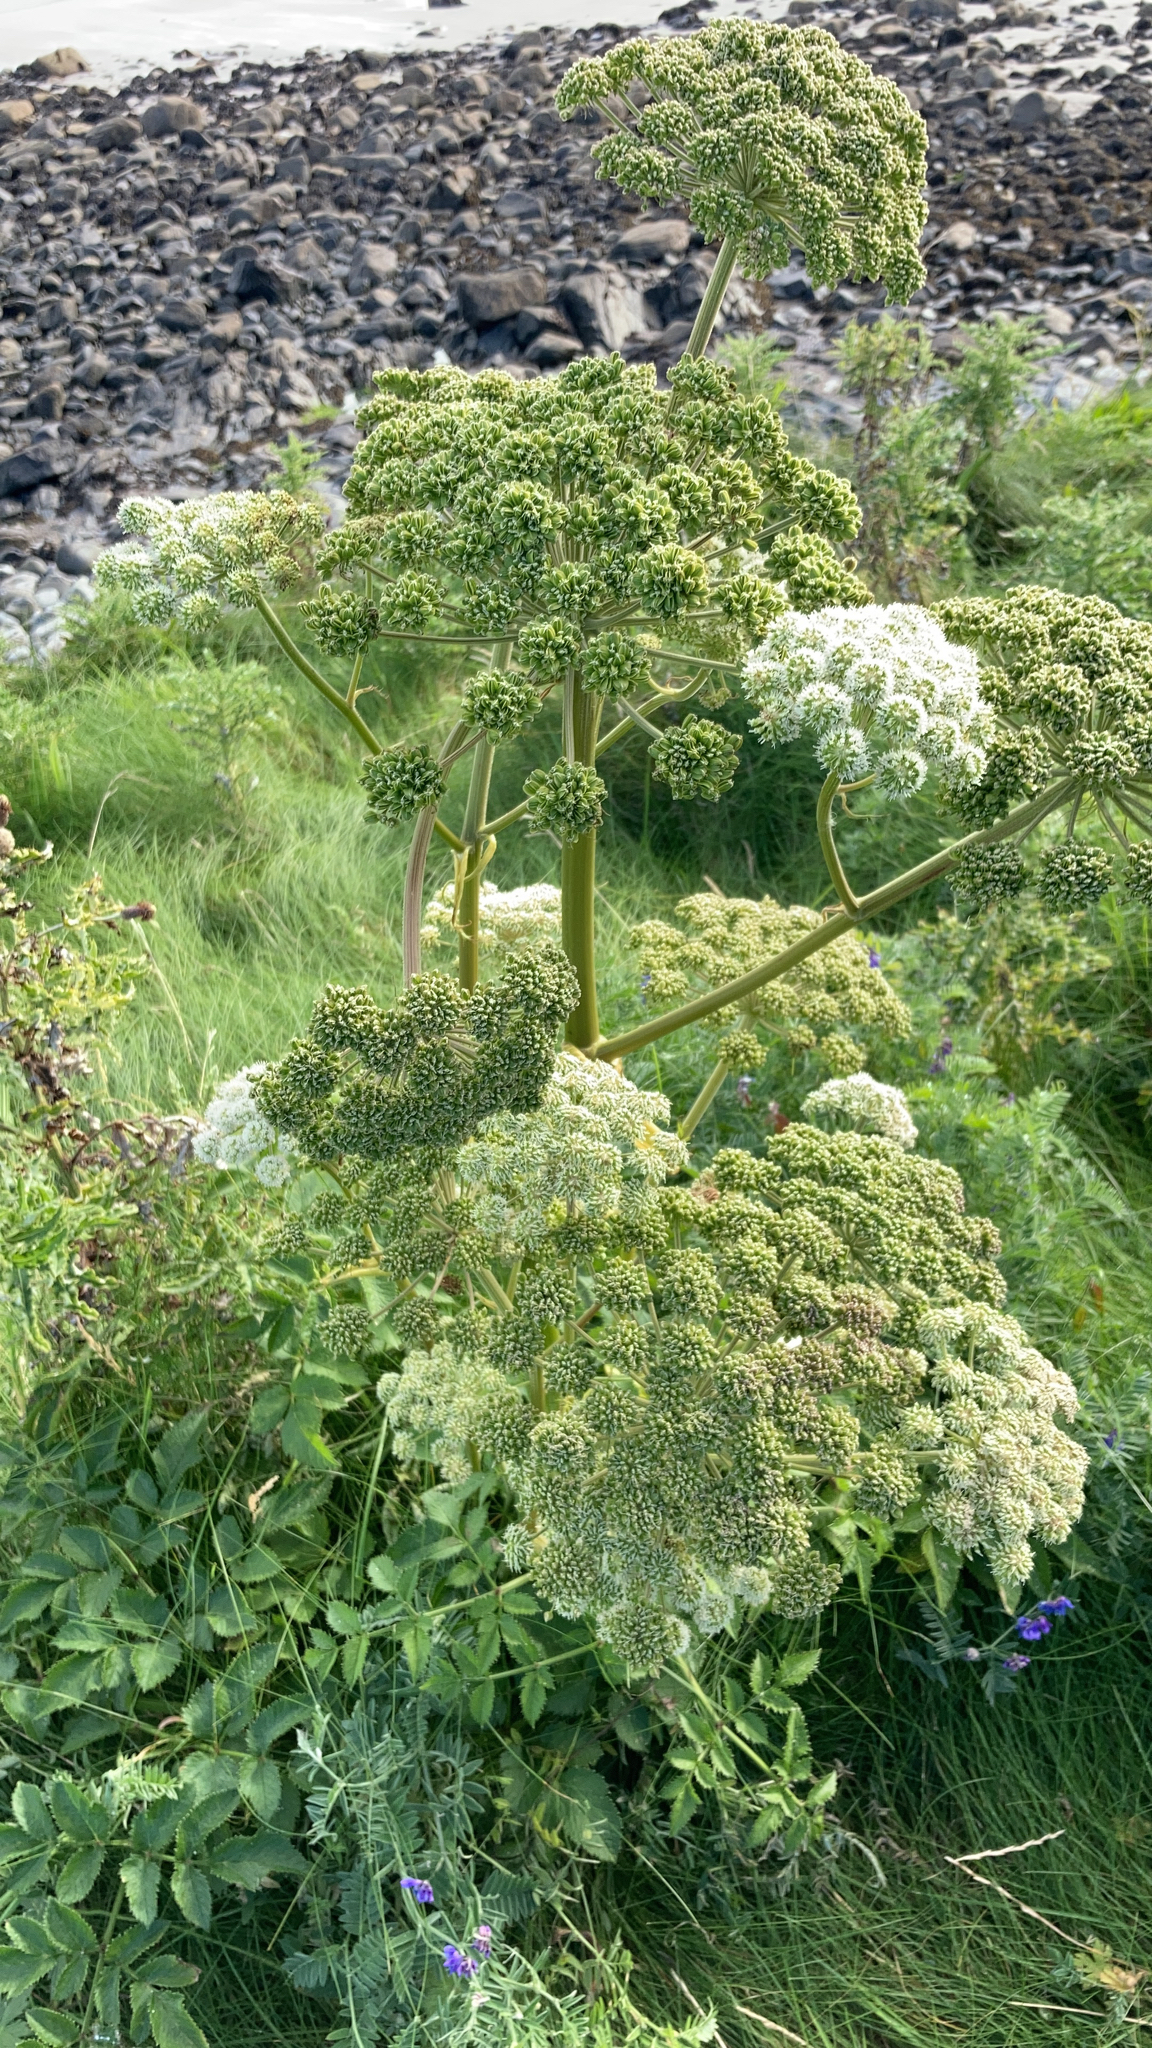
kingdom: Plantae
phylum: Tracheophyta
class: Magnoliopsida
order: Apiales
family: Apiaceae
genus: Angelica
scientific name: Angelica sylvestris
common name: Wild angelica
